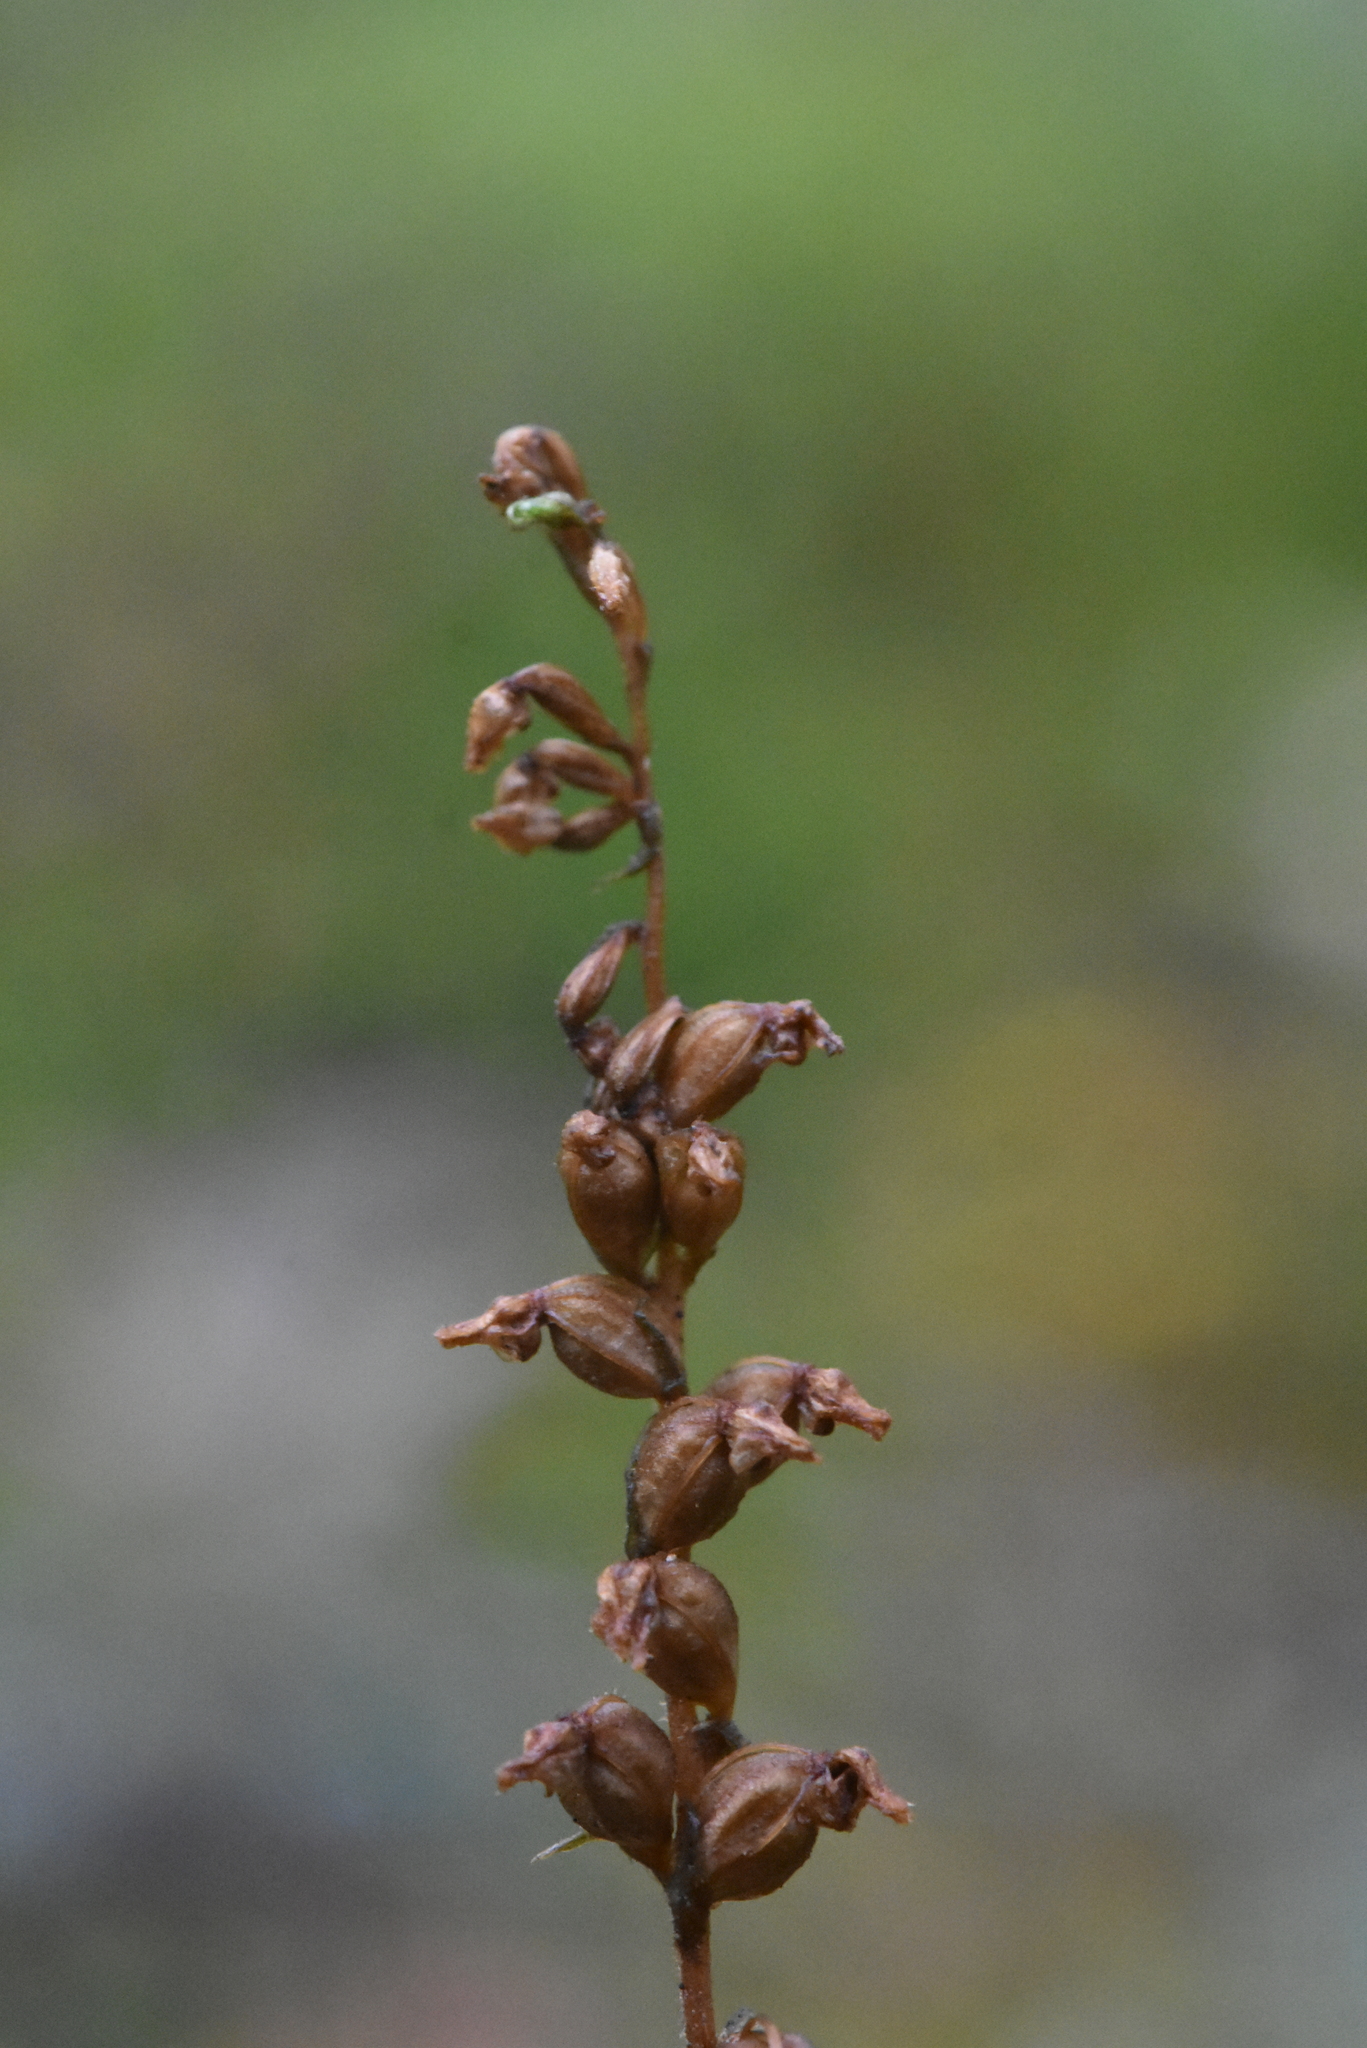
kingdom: Plantae
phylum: Tracheophyta
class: Liliopsida
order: Asparagales
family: Orchidaceae
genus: Goodyera
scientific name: Goodyera repens
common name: Creeping lady's-tresses
